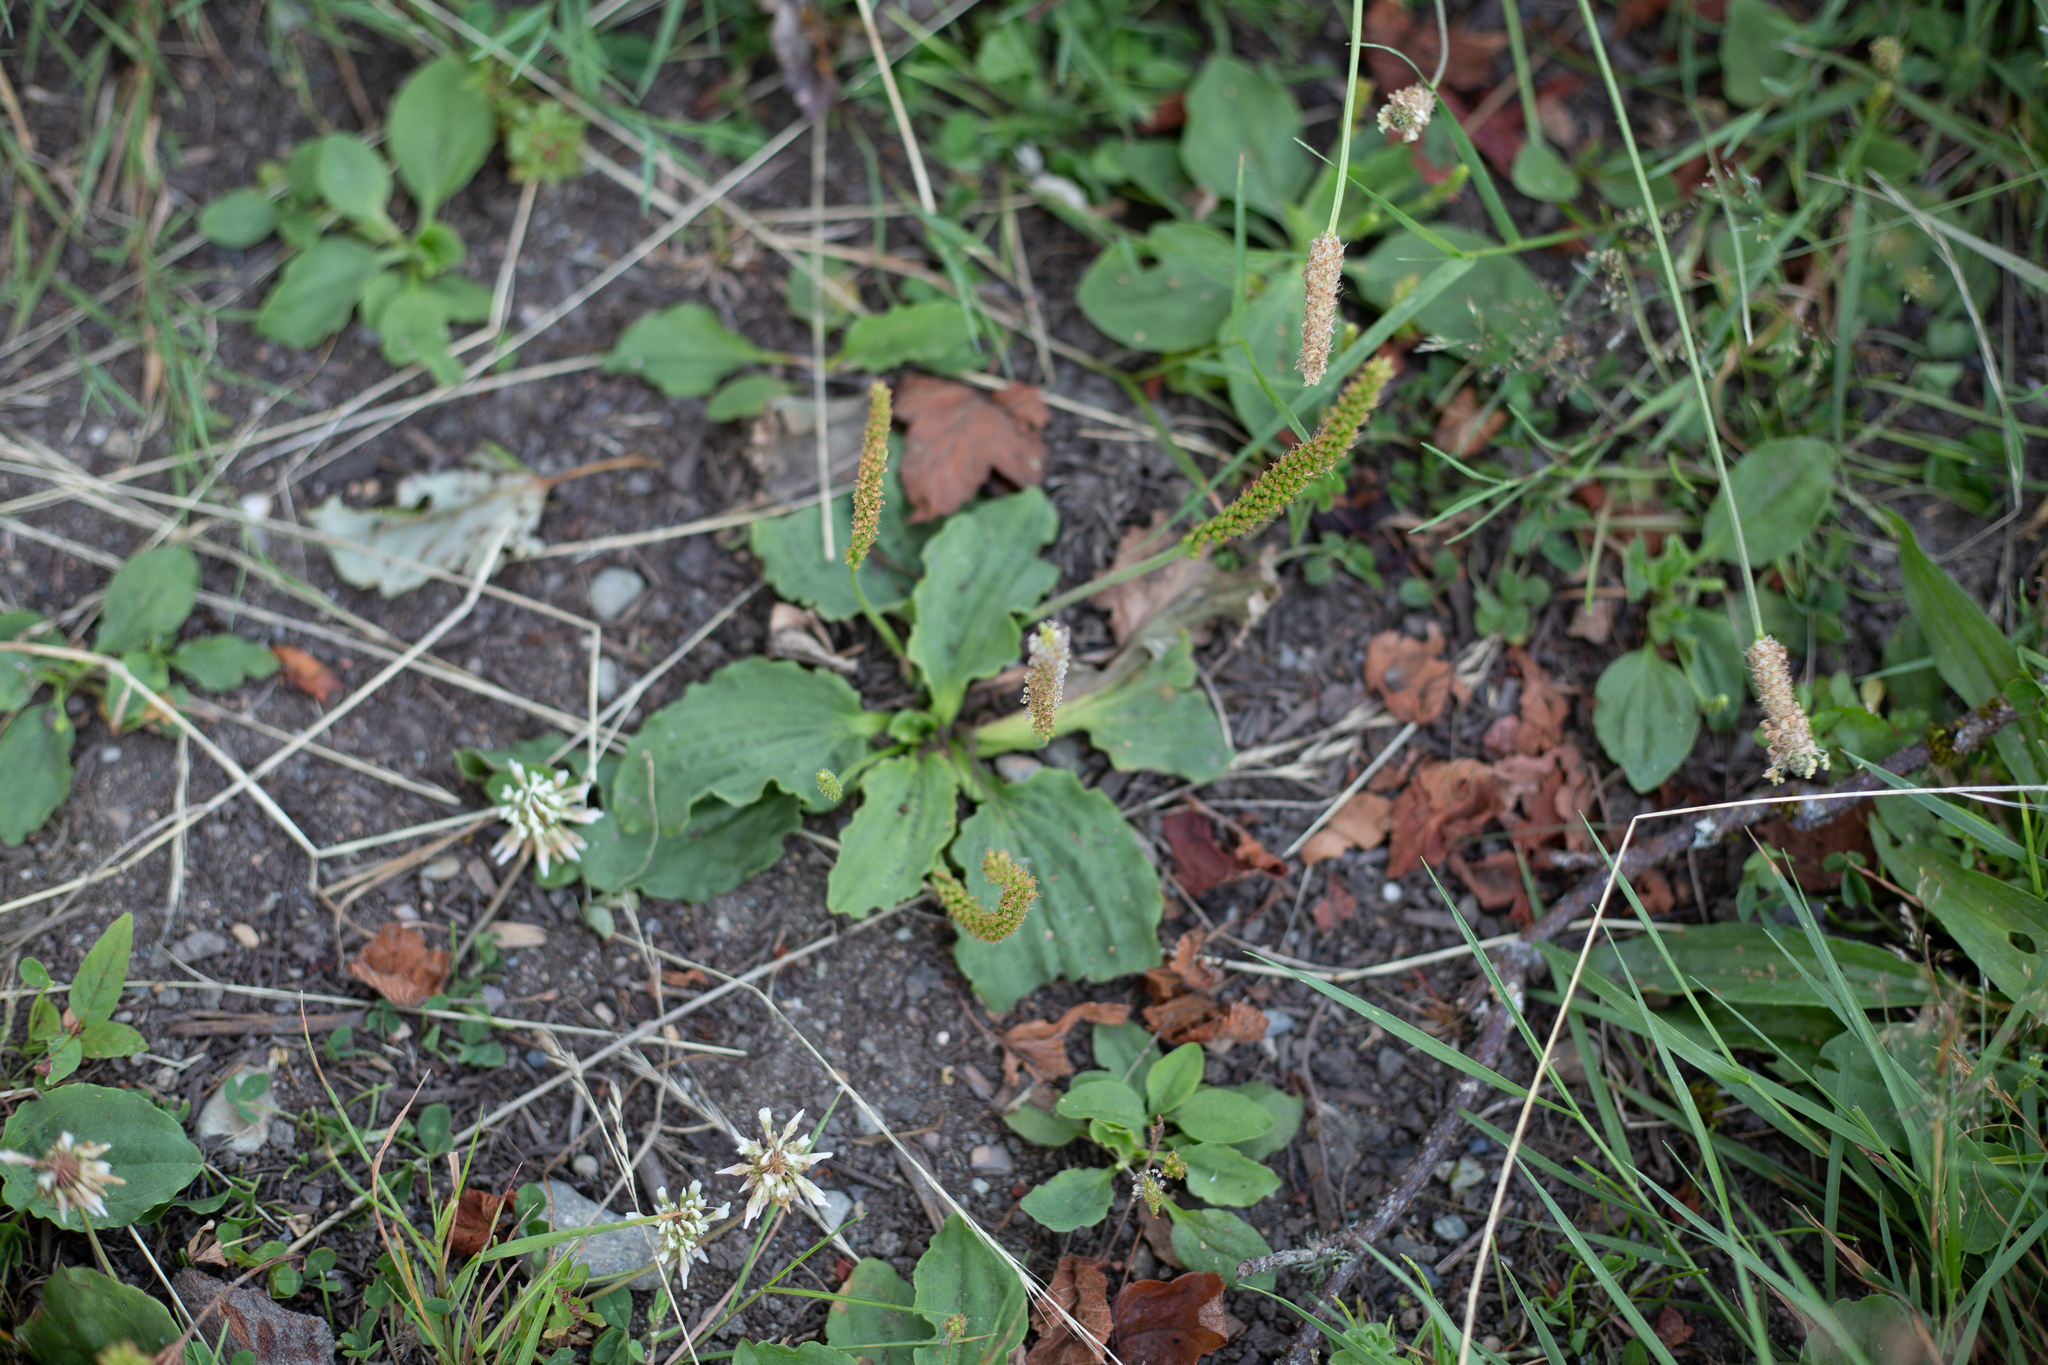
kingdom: Plantae
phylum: Tracheophyta
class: Magnoliopsida
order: Lamiales
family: Plantaginaceae
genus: Plantago
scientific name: Plantago major
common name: Common plantain
